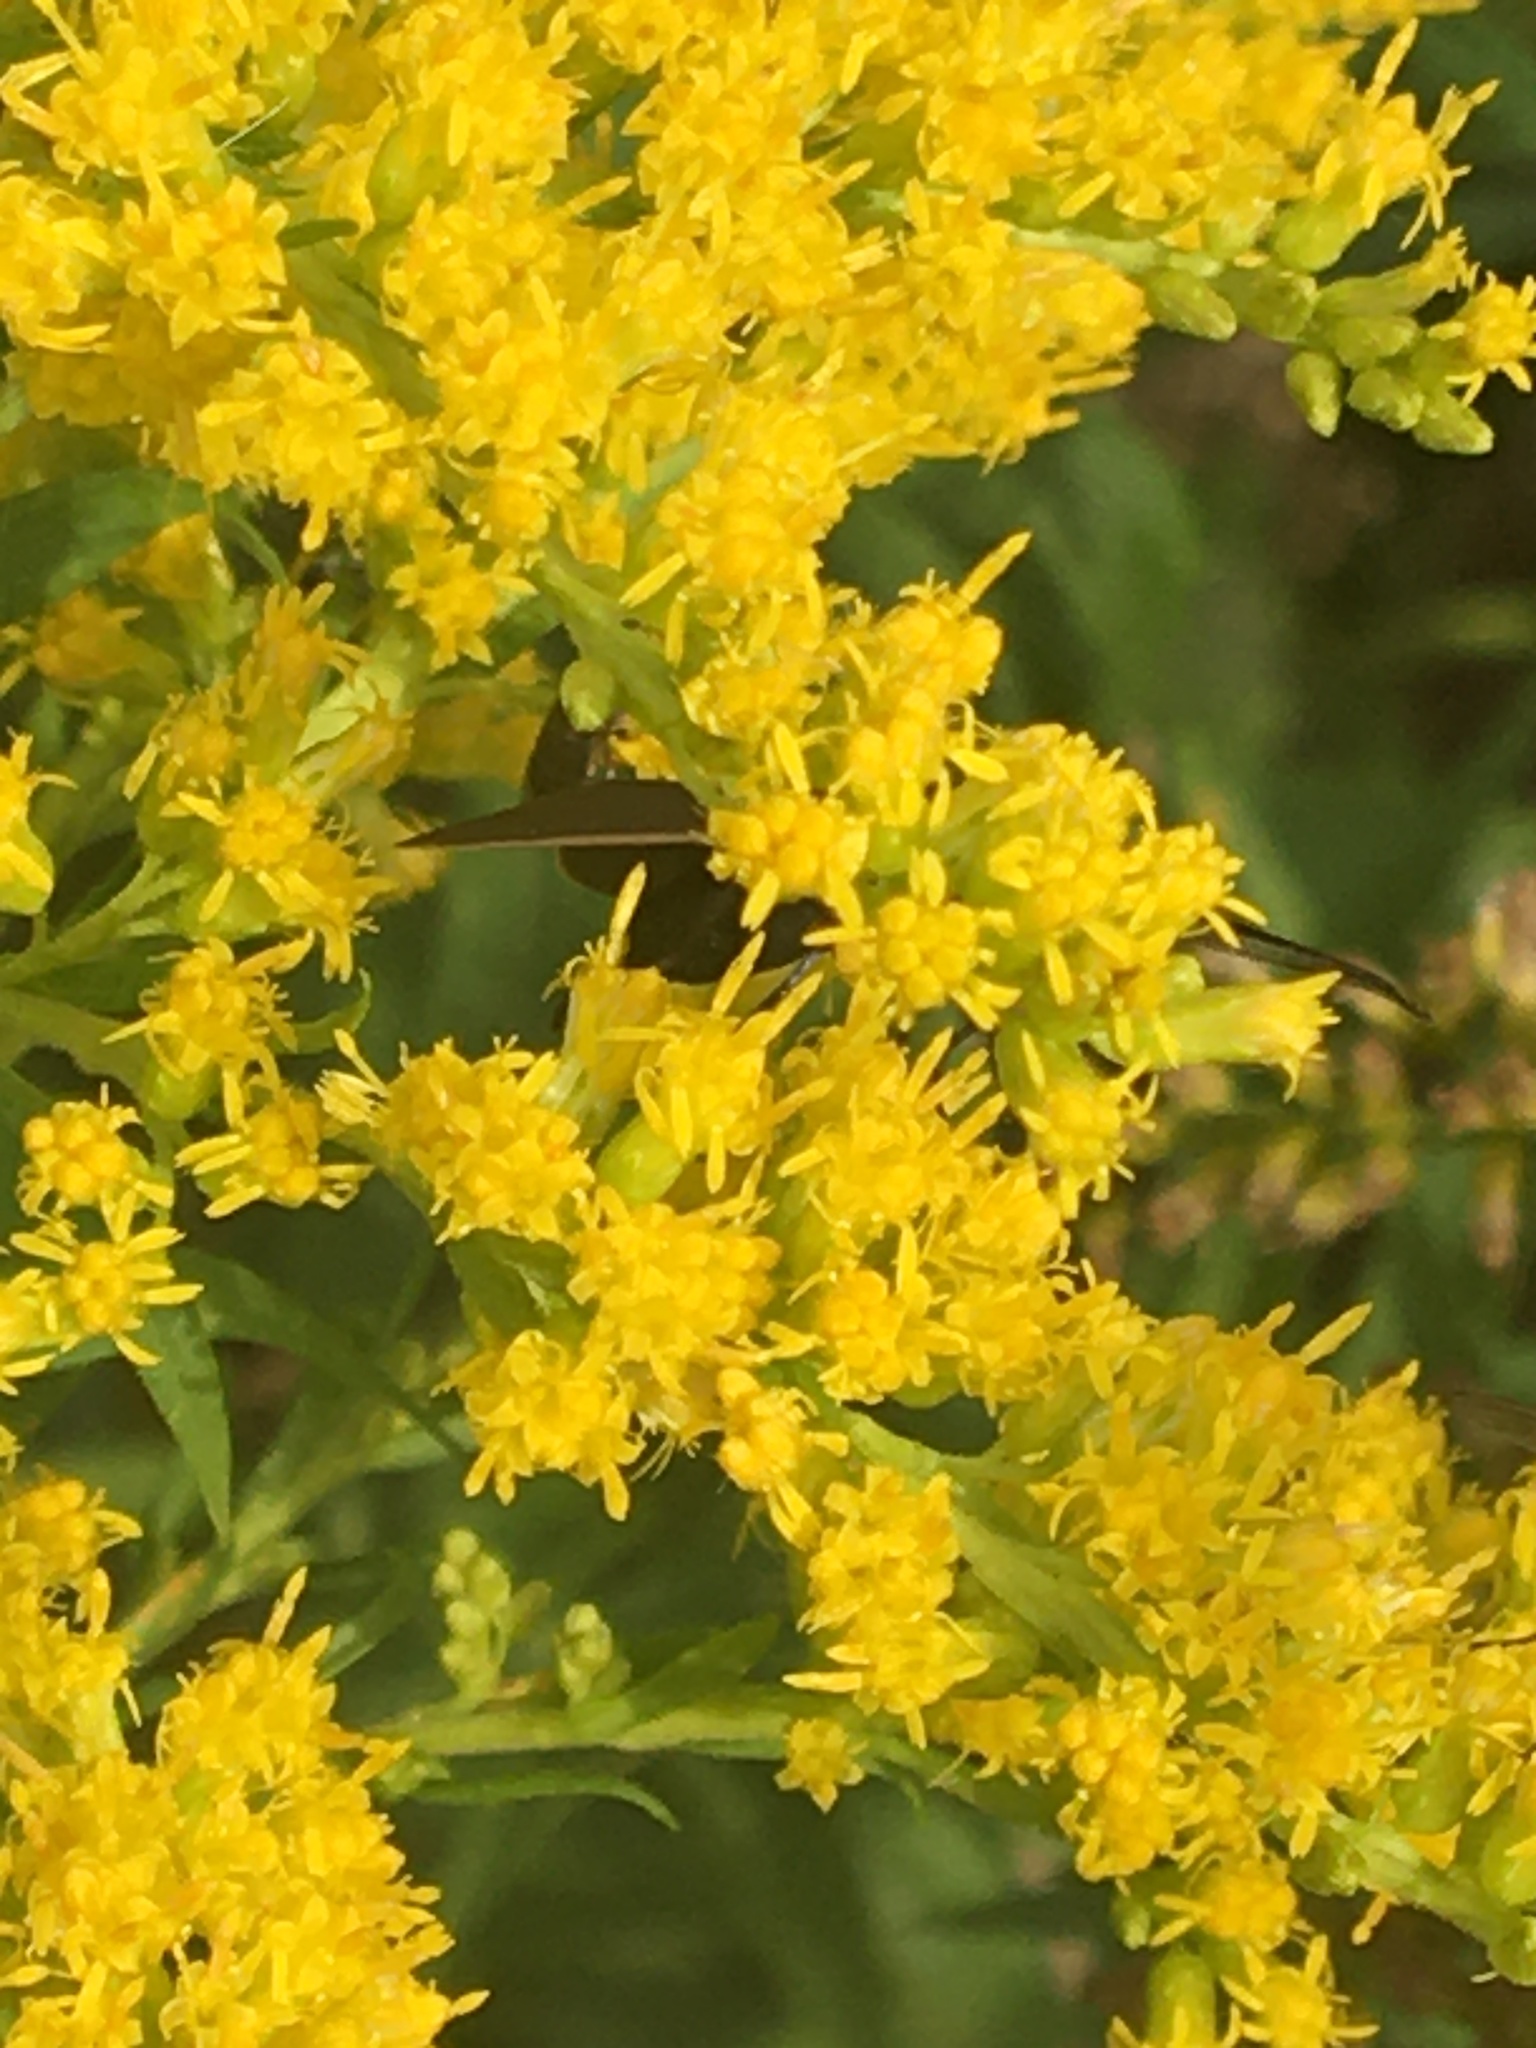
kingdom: Animalia
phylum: Arthropoda
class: Insecta
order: Lepidoptera
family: Erebidae
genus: Cisseps
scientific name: Cisseps fulvicollis
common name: Yellow-collared scape moth
